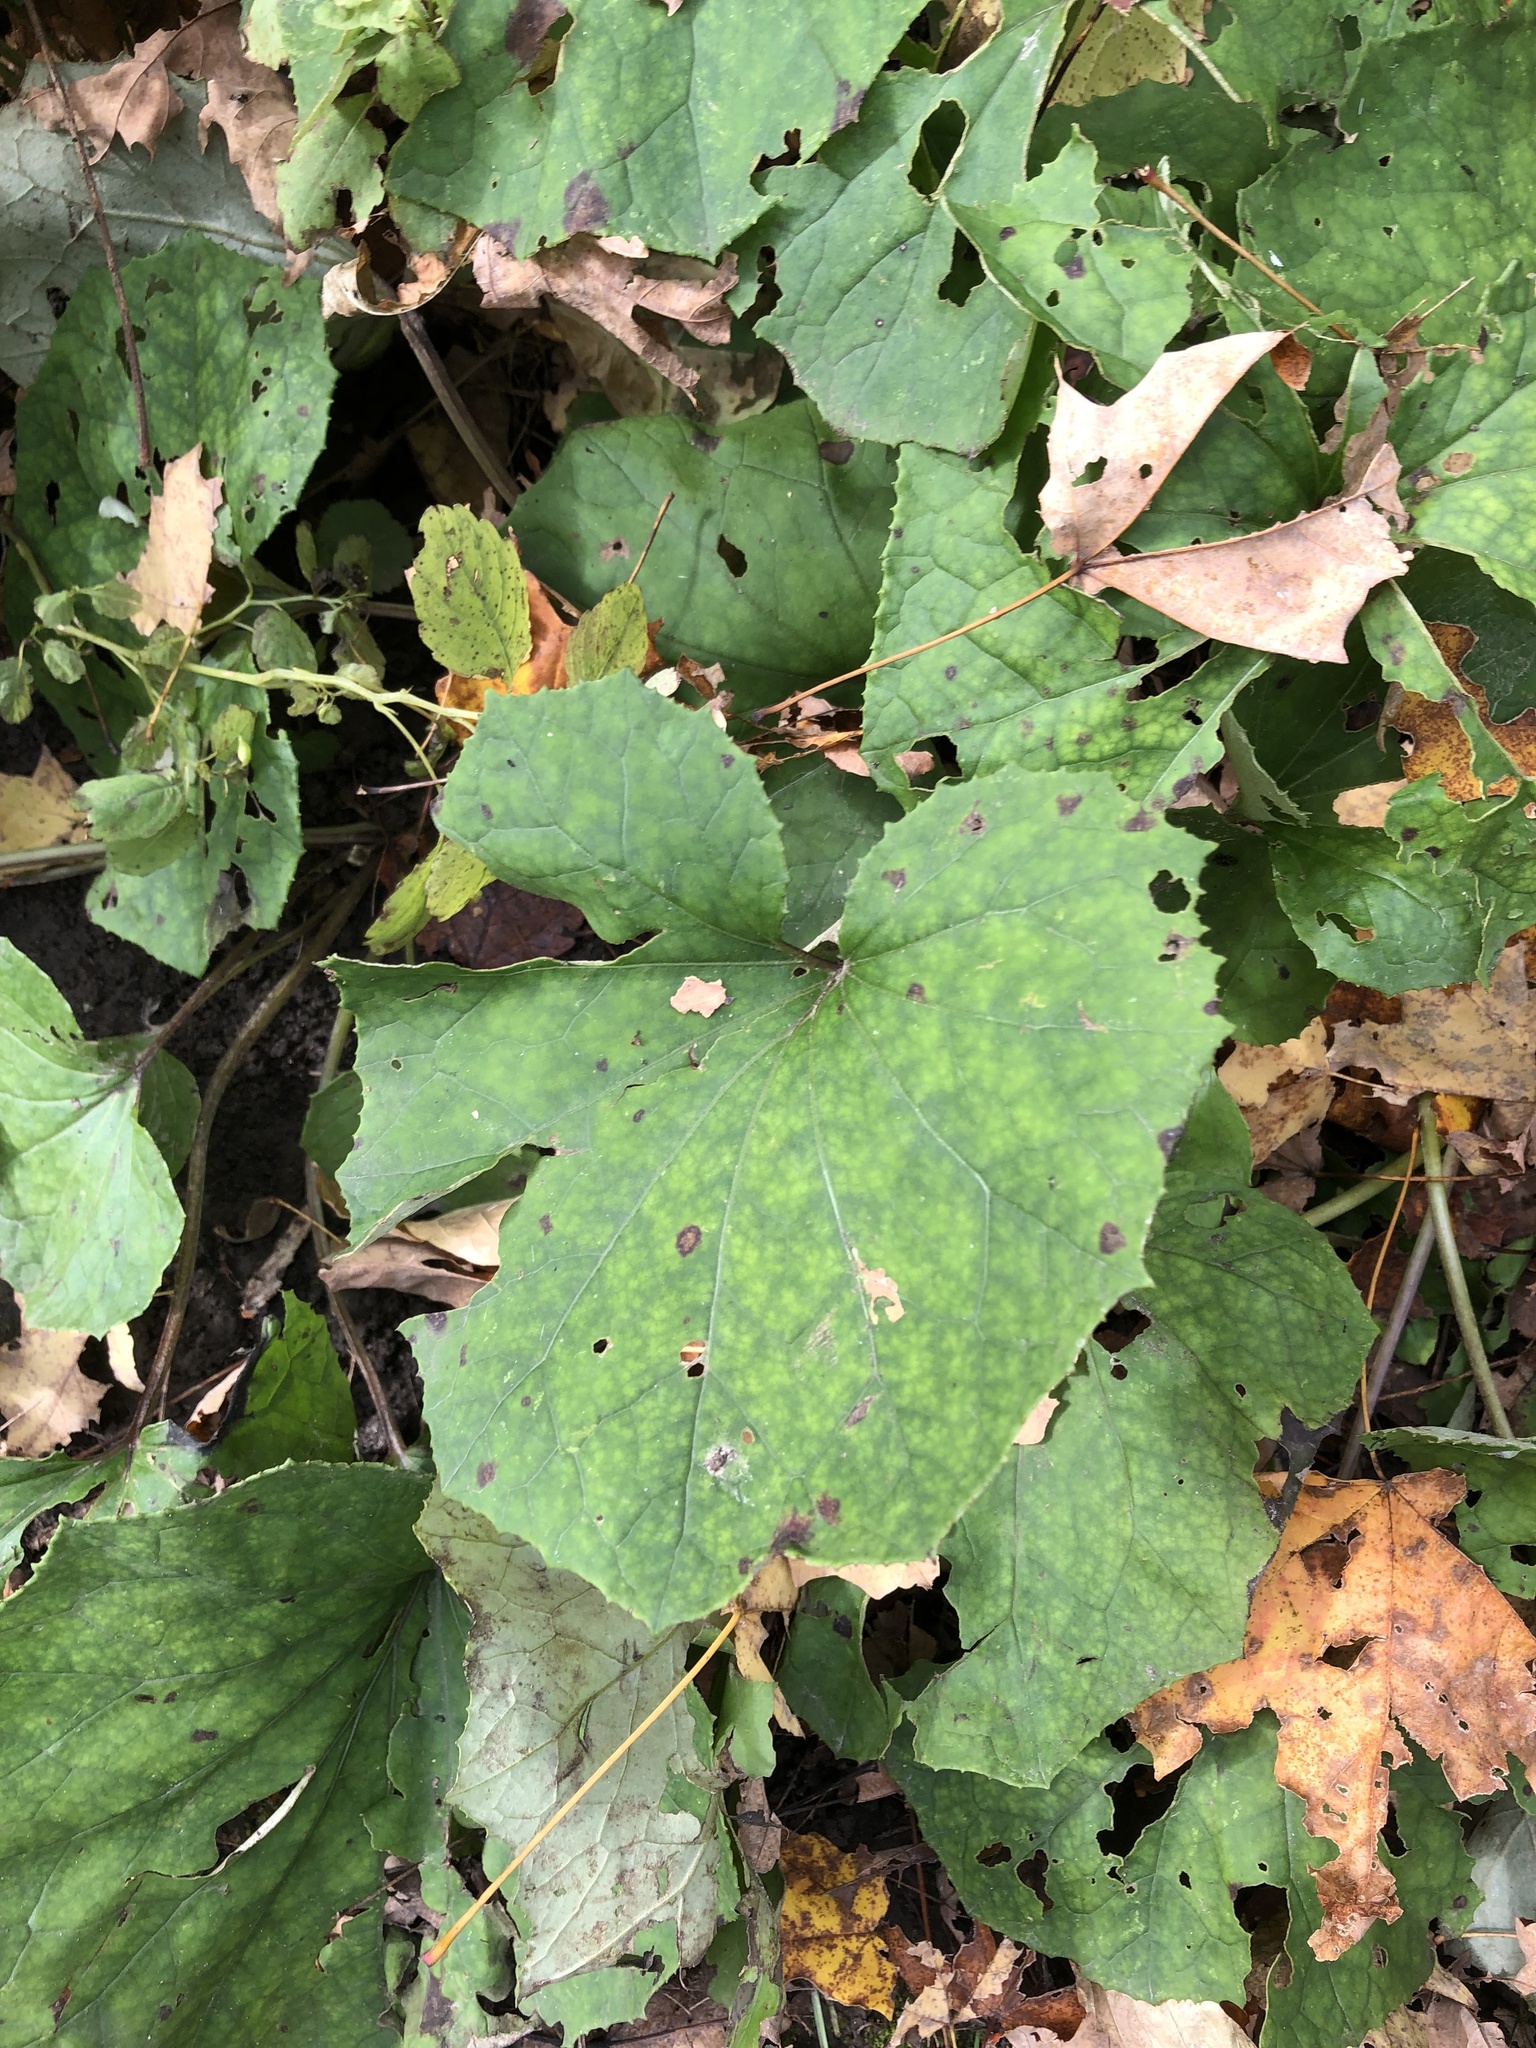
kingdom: Plantae
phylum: Tracheophyta
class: Magnoliopsida
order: Asterales
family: Asteraceae
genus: Tussilago
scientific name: Tussilago farfara
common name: Coltsfoot
